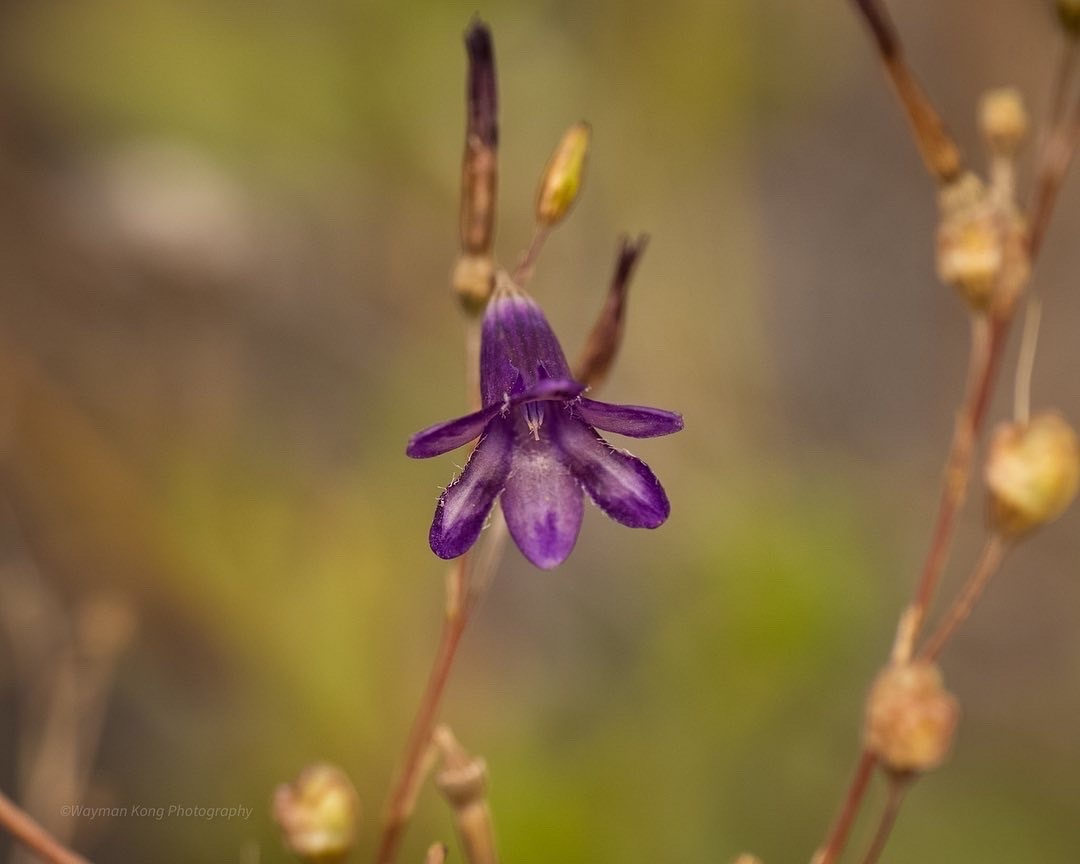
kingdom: Plantae
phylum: Tracheophyta
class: Liliopsida
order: Asparagales
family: Tecophilaeaceae
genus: Conanthera
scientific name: Conanthera campanulata
